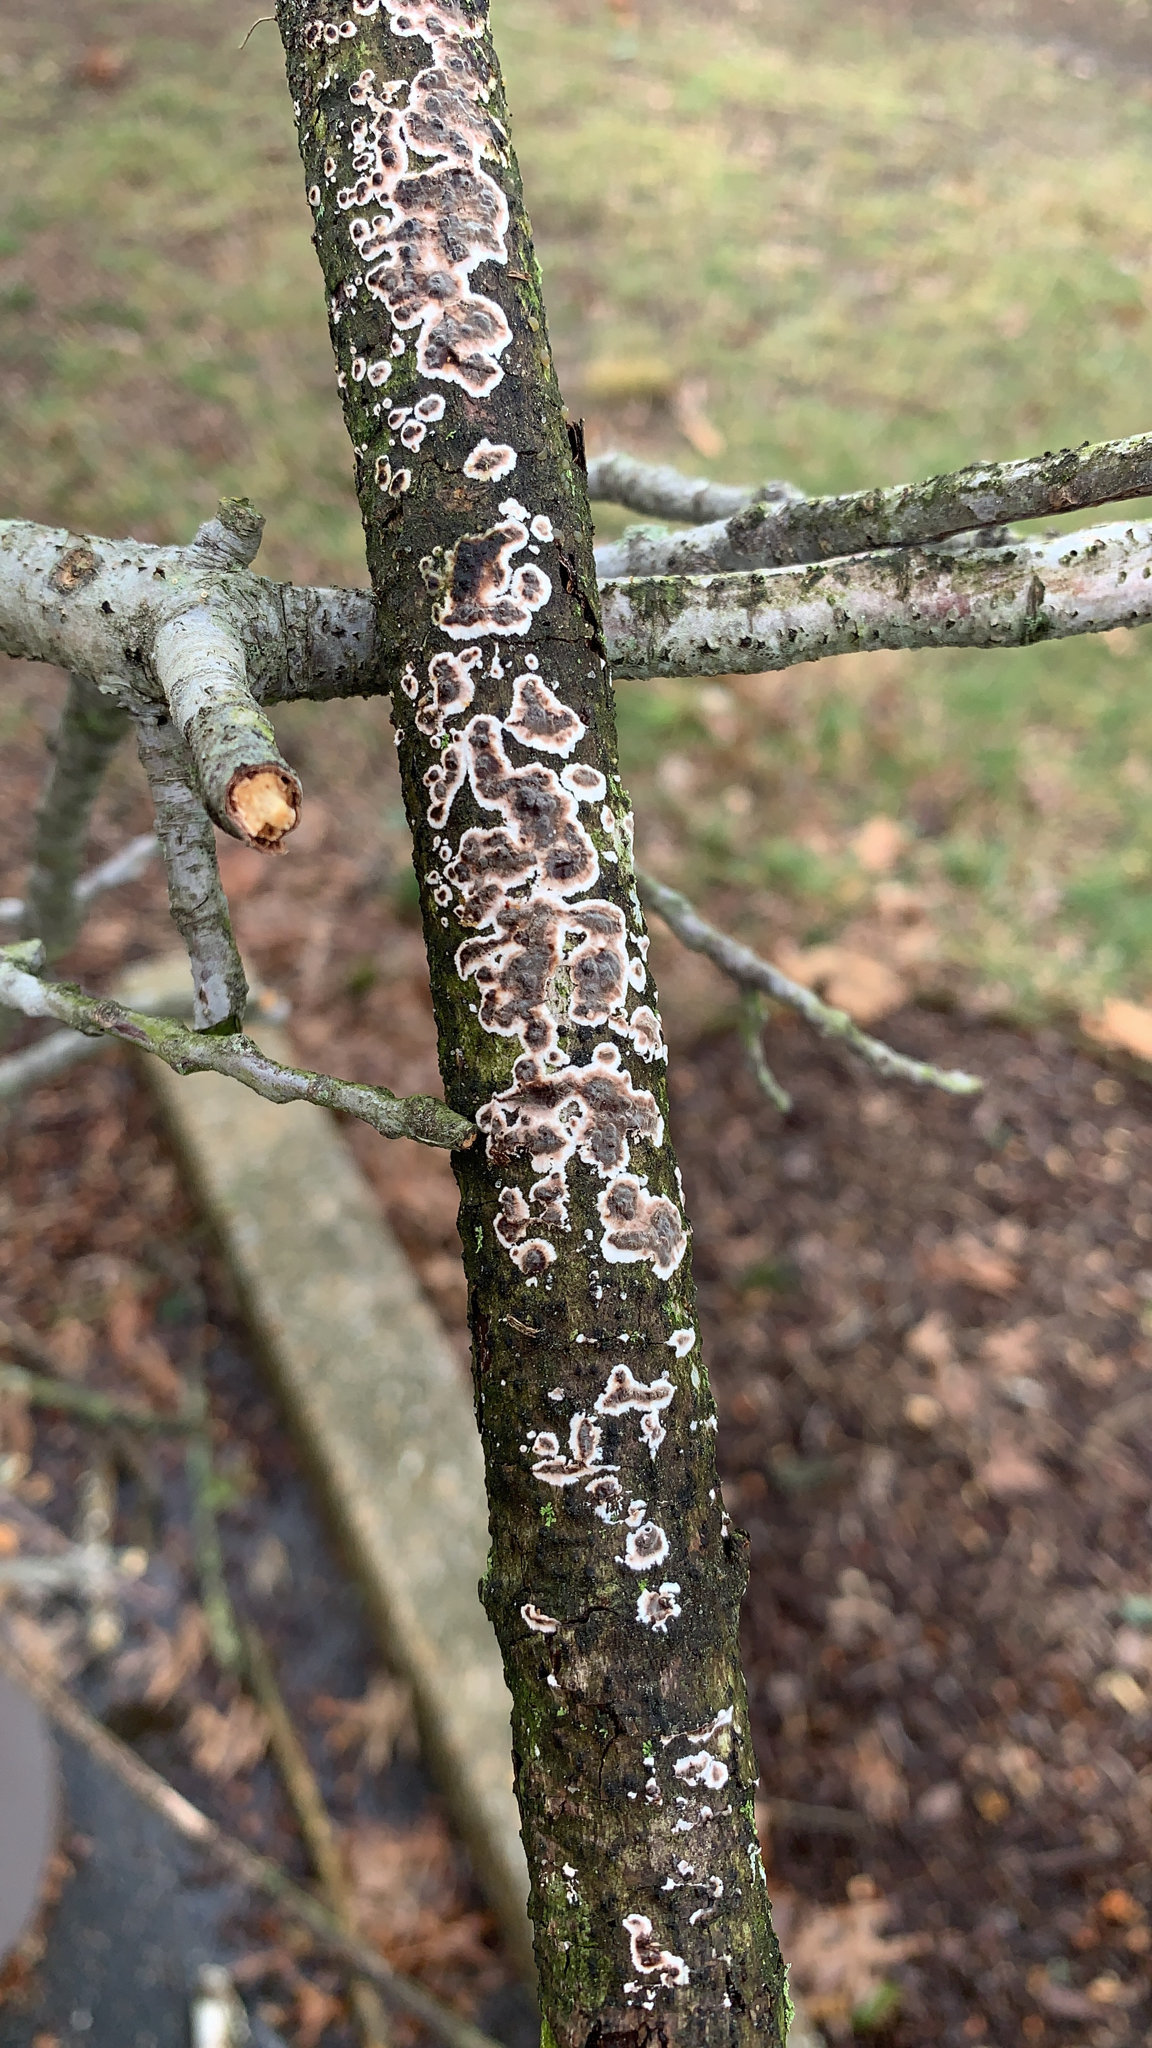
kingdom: Fungi
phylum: Basidiomycota
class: Agaricomycetes
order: Russulales
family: Peniophoraceae
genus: Peniophora
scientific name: Peniophora albobadia
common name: Giraffe spots
